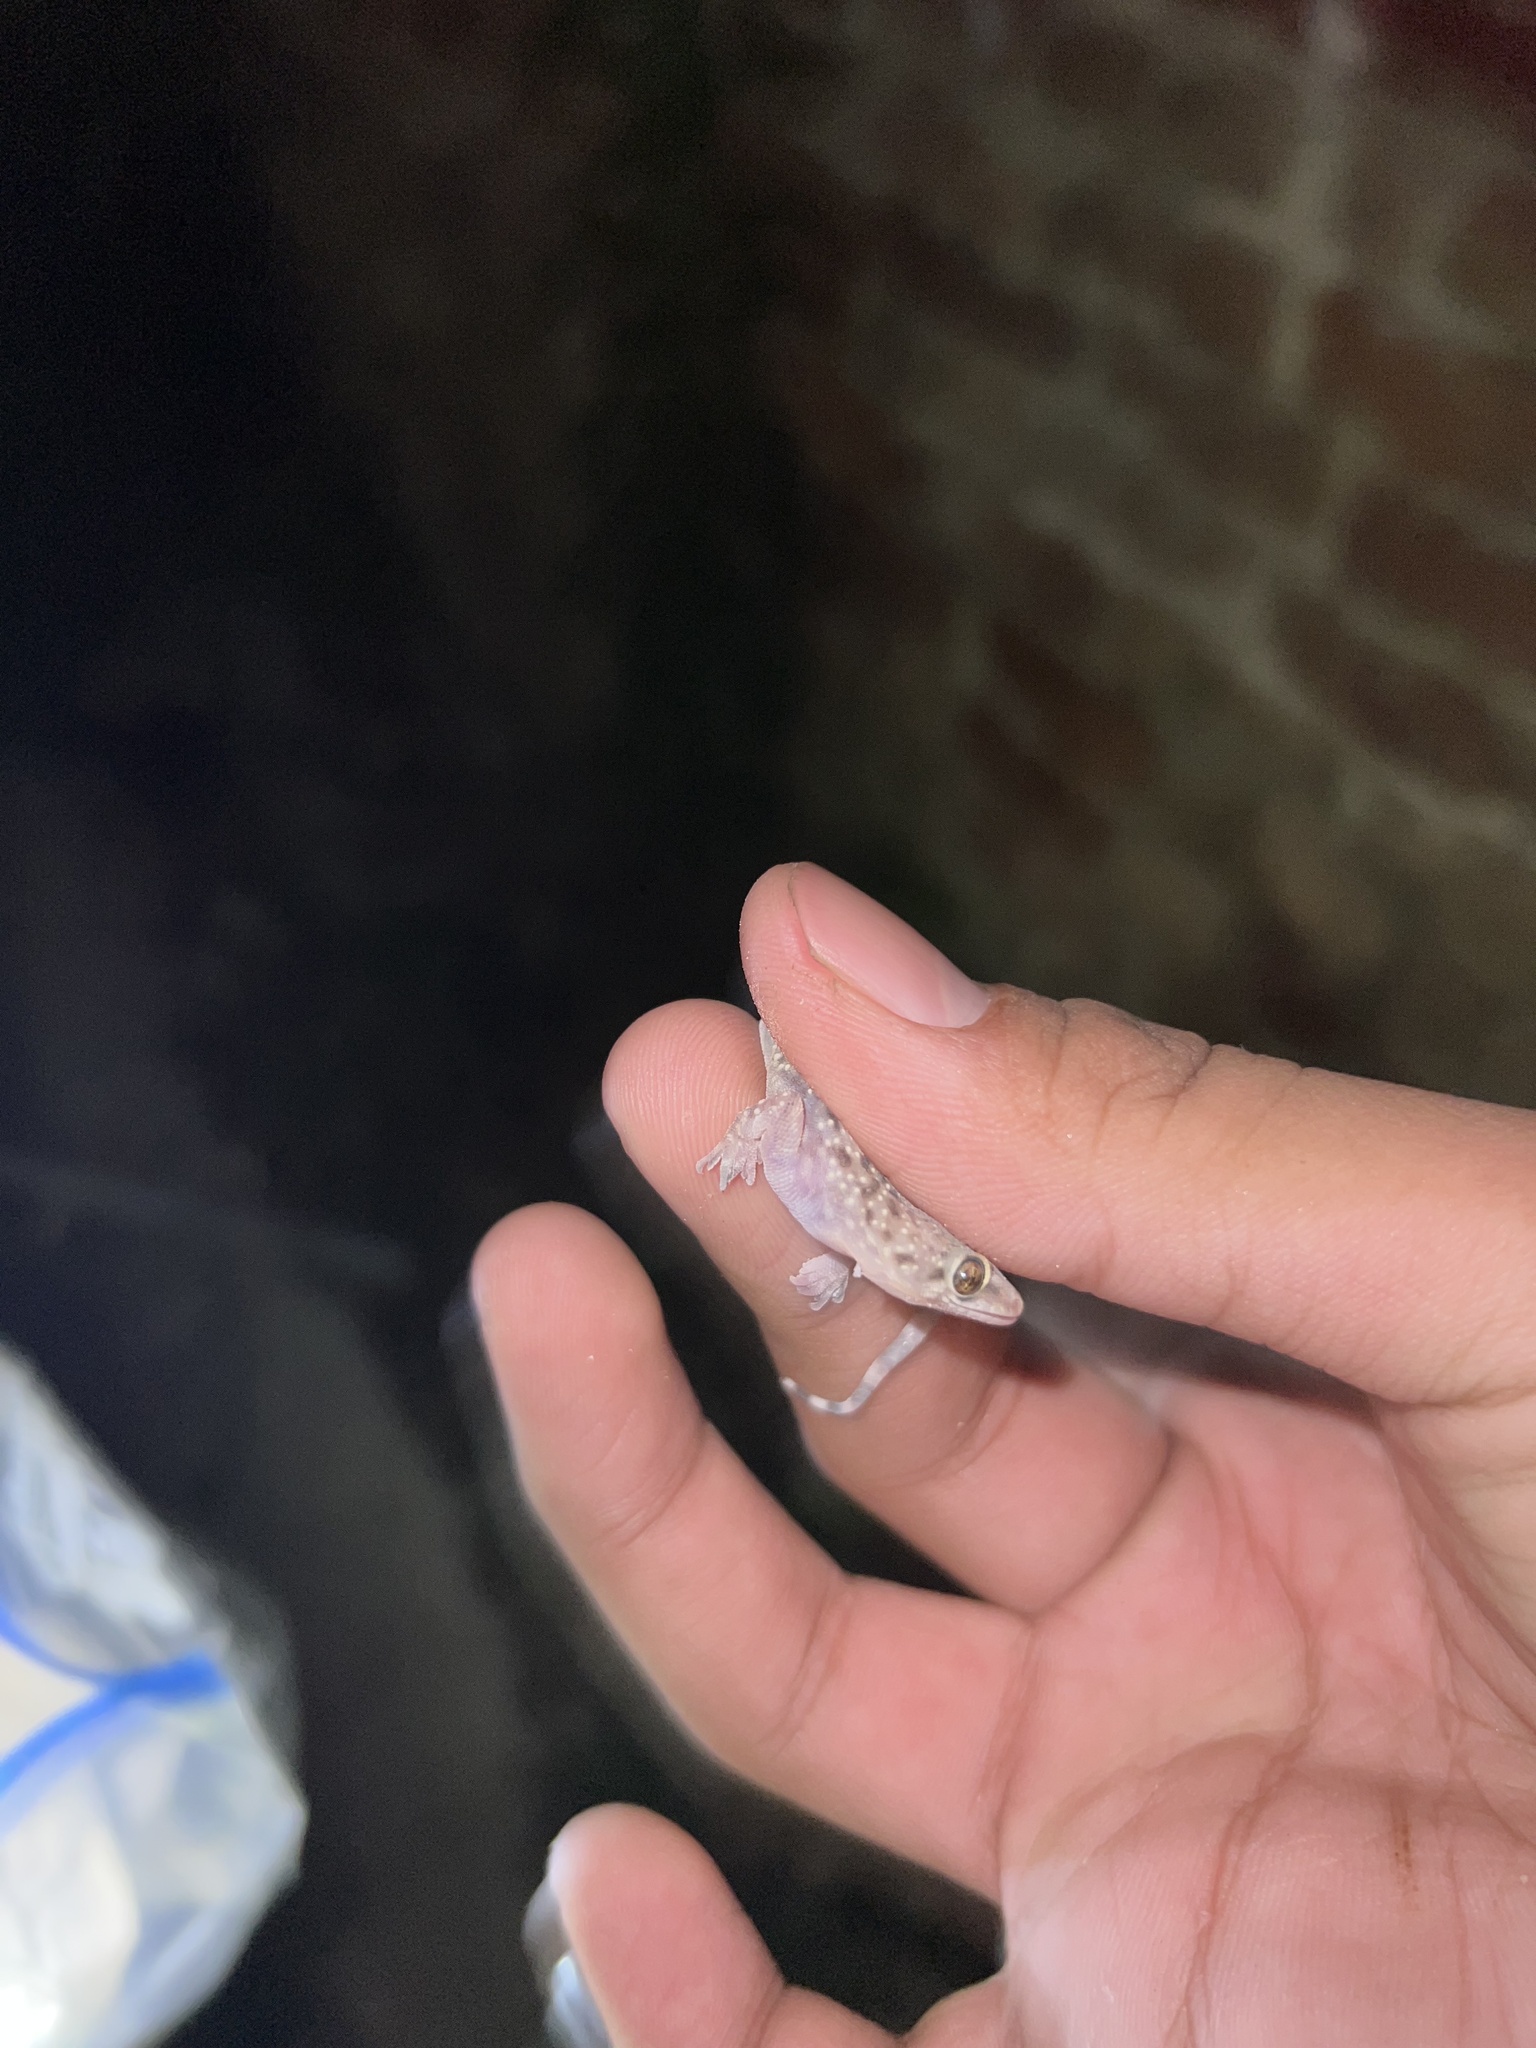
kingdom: Animalia
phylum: Chordata
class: Squamata
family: Gekkonidae
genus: Hemidactylus
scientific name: Hemidactylus turcicus
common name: Turkish gecko
